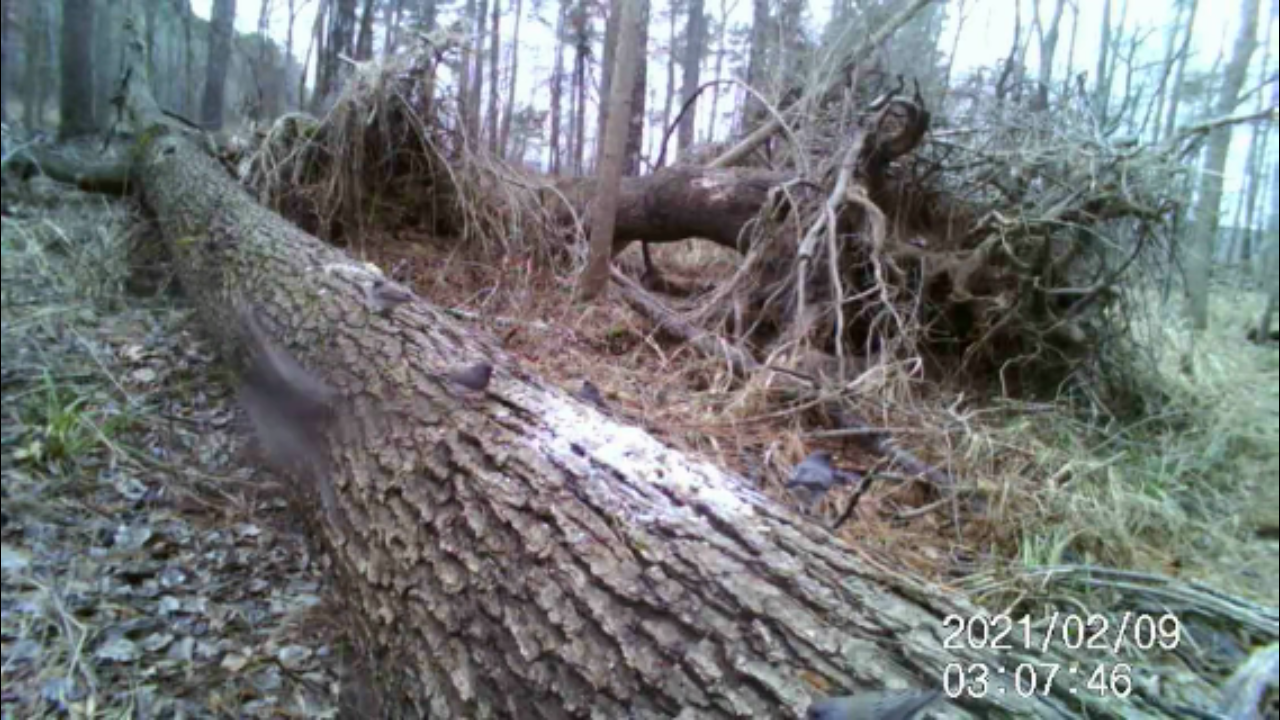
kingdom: Animalia
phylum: Chordata
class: Aves
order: Passeriformes
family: Passerellidae
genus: Junco
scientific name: Junco hyemalis
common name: Dark-eyed junco
